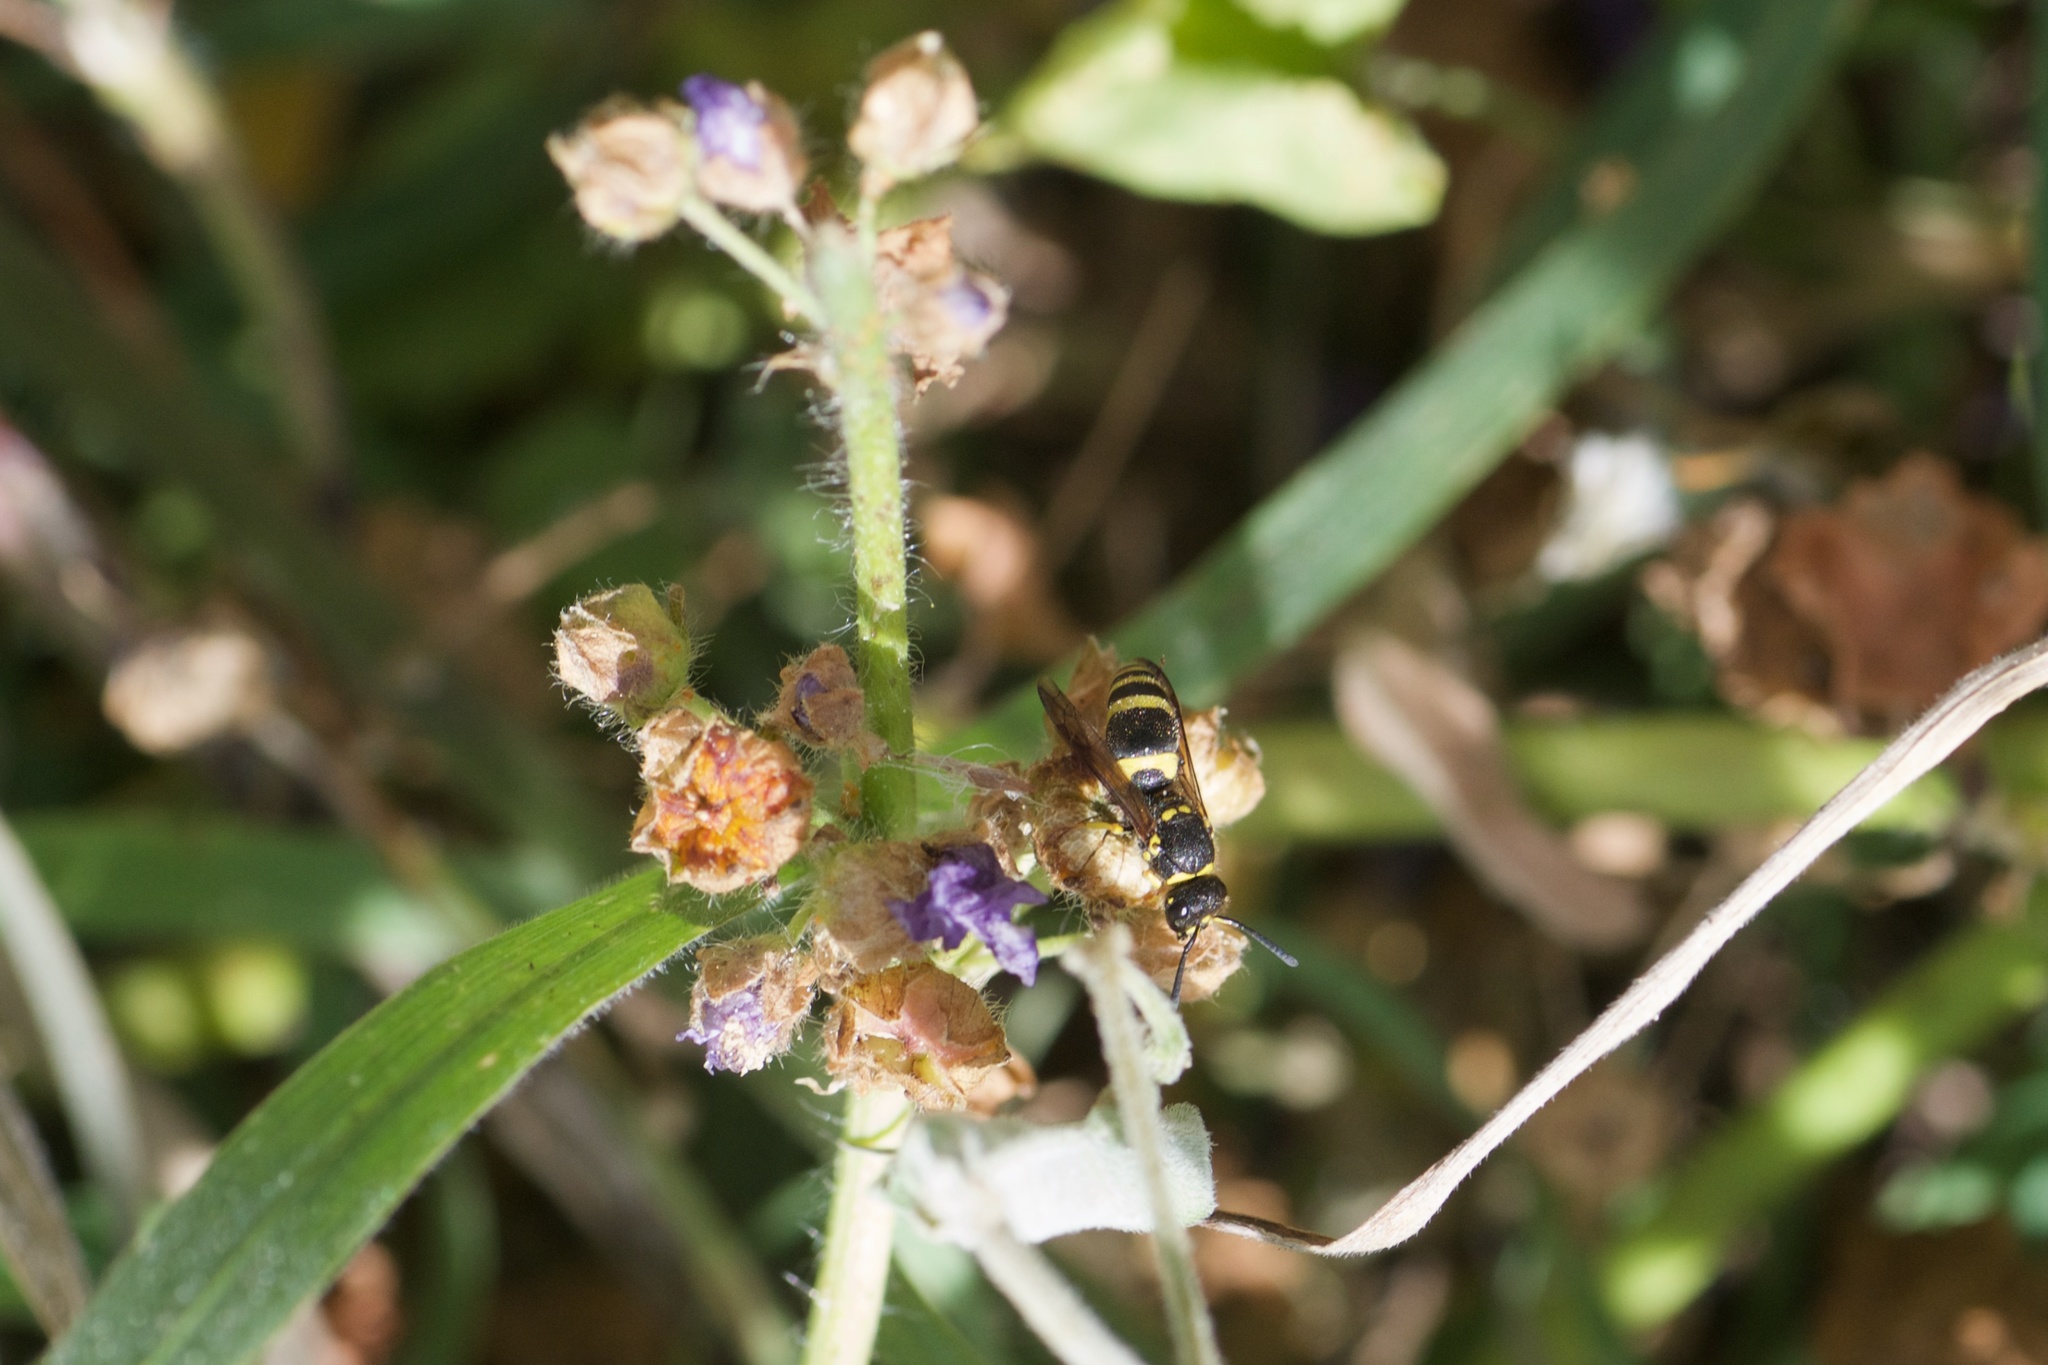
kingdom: Animalia
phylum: Arthropoda
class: Insecta
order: Hymenoptera
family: Vespidae
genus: Ancistrocerus
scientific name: Ancistrocerus gazella
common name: European tube wasp
